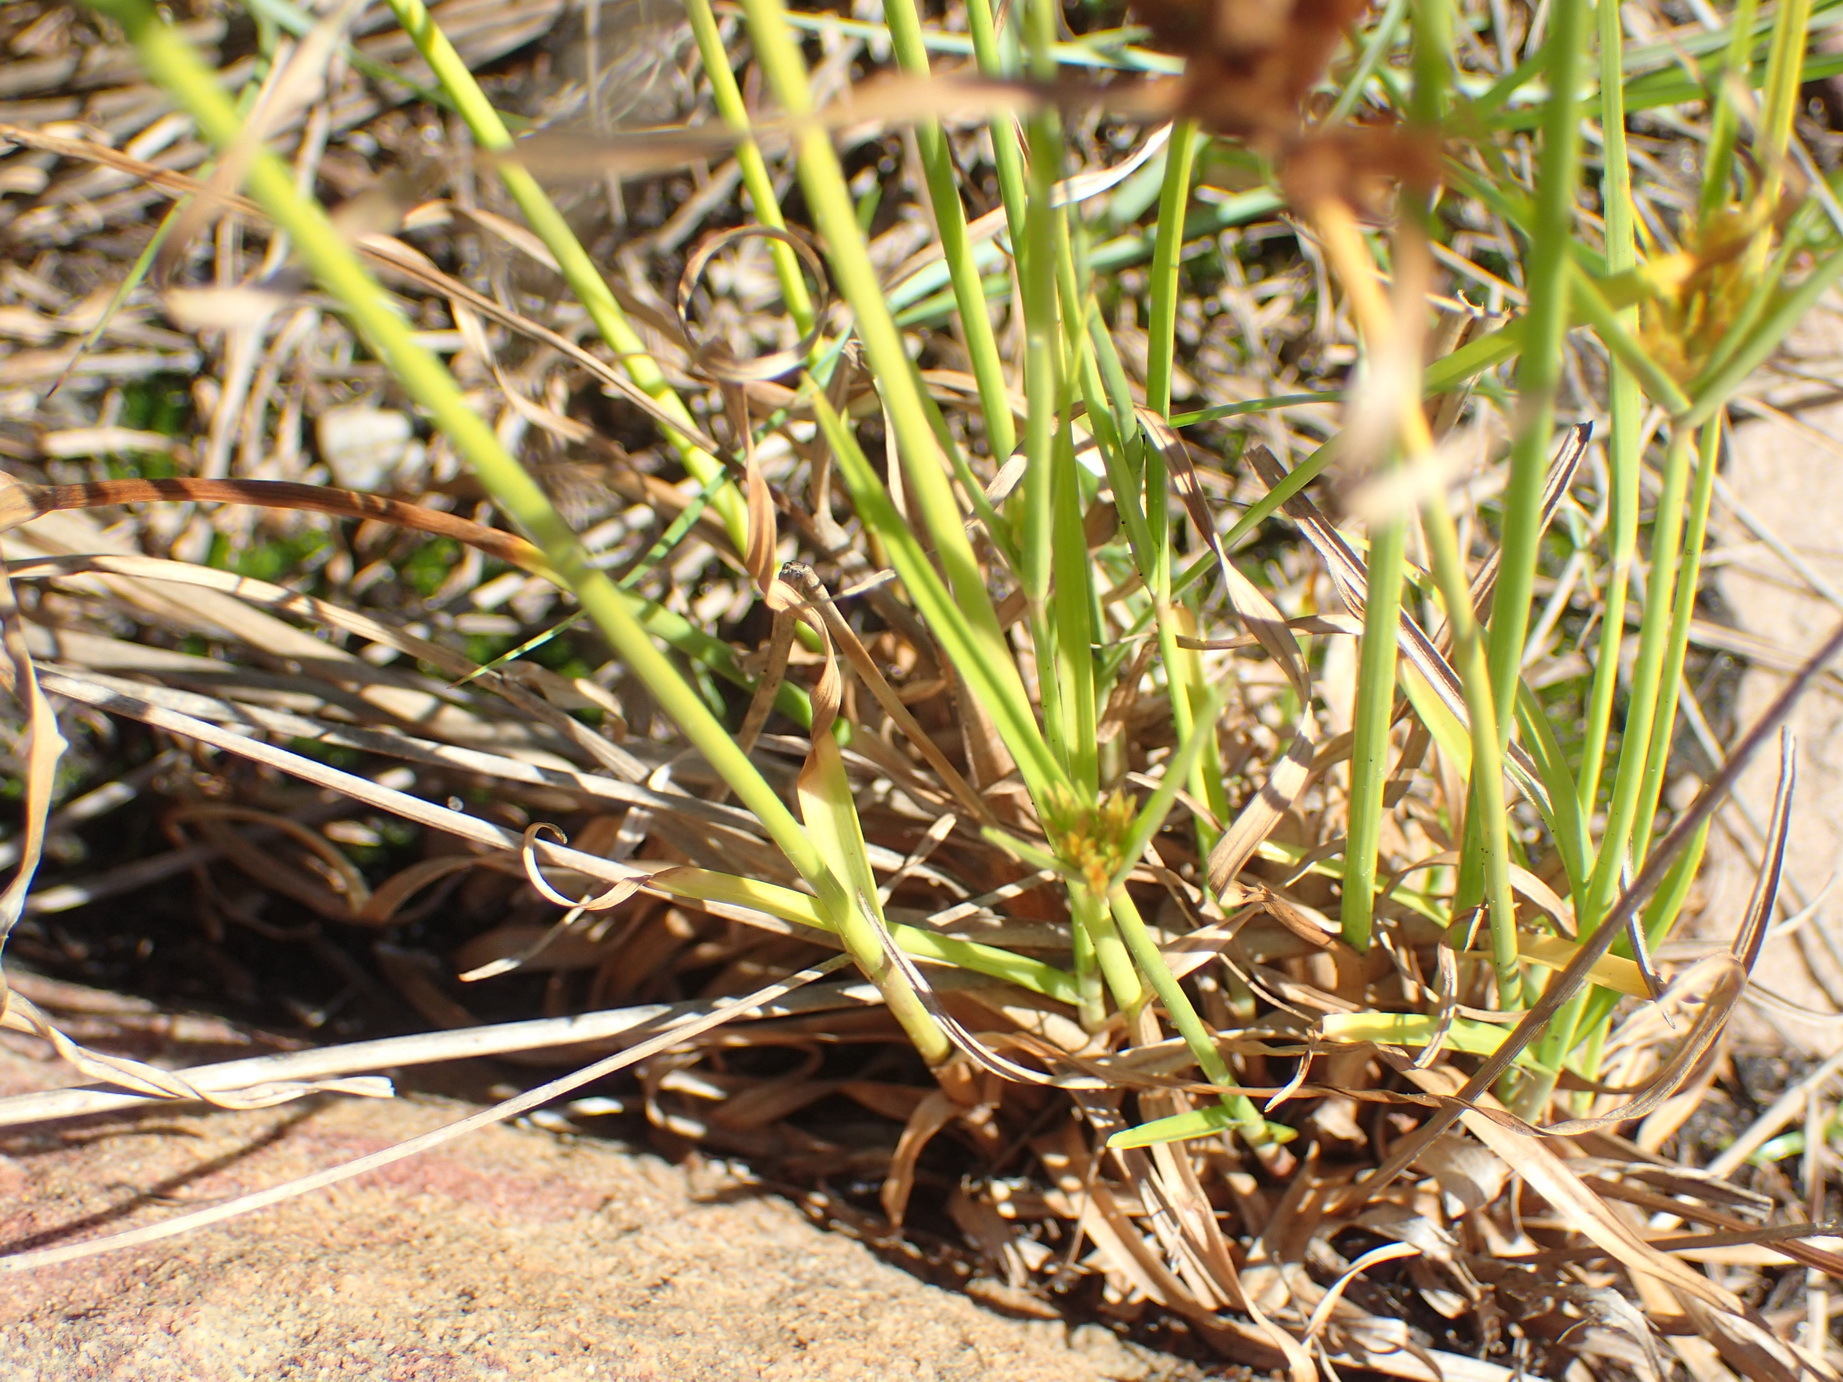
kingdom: Plantae
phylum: Tracheophyta
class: Liliopsida
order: Poales
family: Cyperaceae
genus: Cyperus
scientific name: Cyperus polystachyos
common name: Bunchy flat sedge
